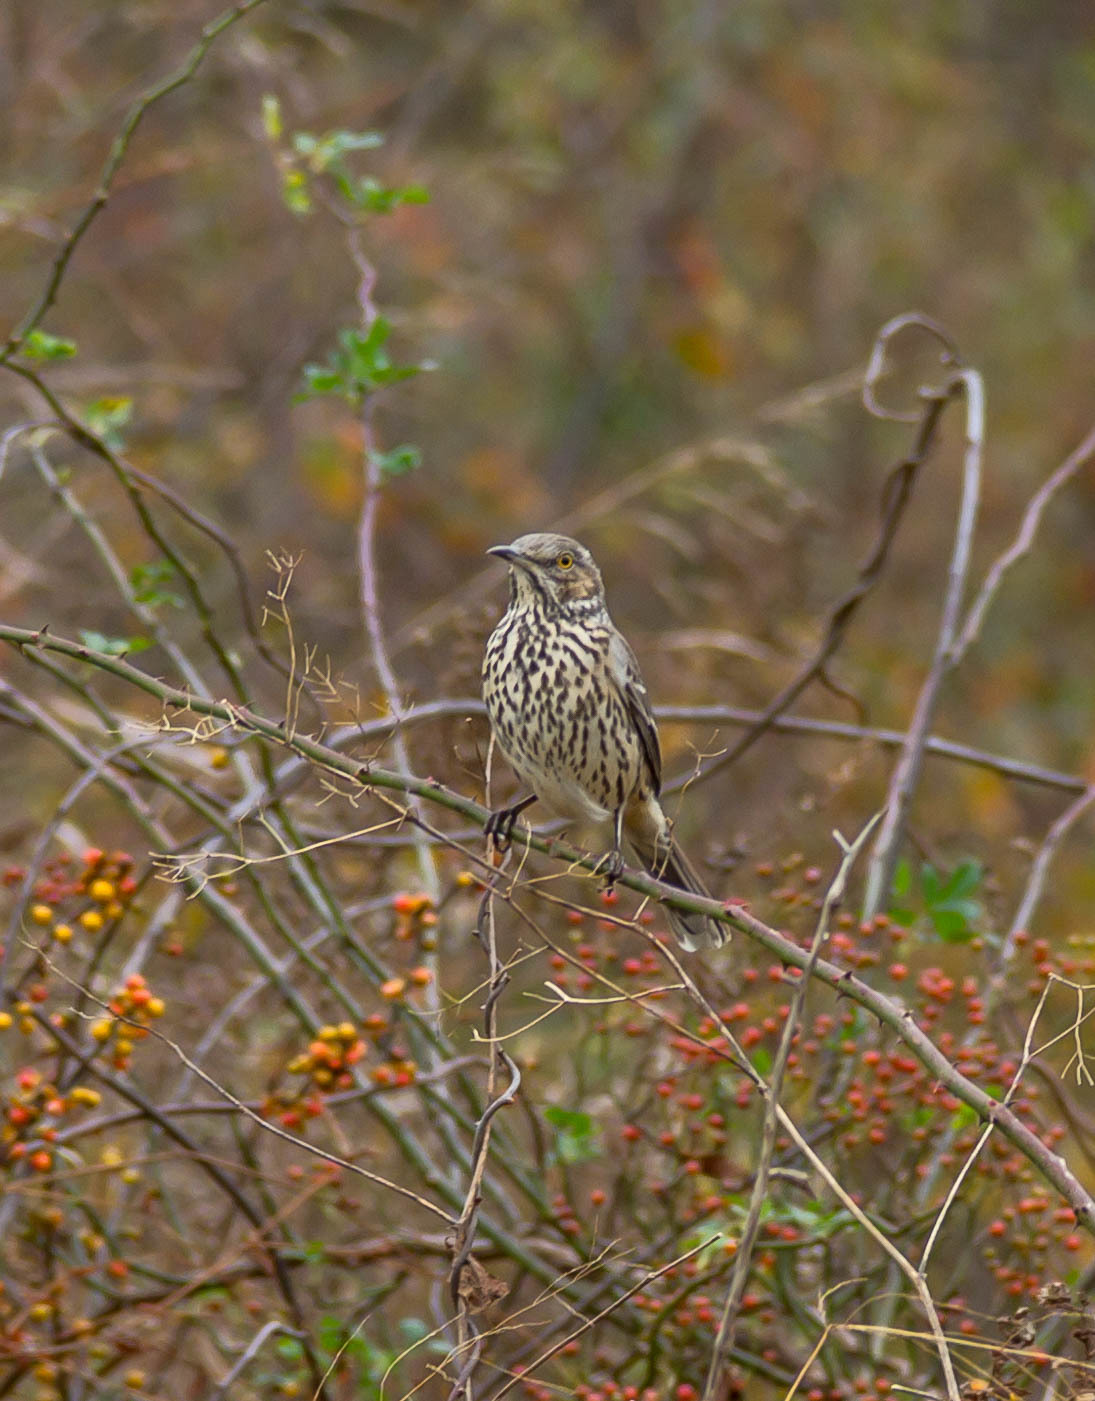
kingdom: Animalia
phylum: Chordata
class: Aves
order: Passeriformes
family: Mimidae
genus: Oreoscoptes
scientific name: Oreoscoptes montanus
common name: Sage thrasher
